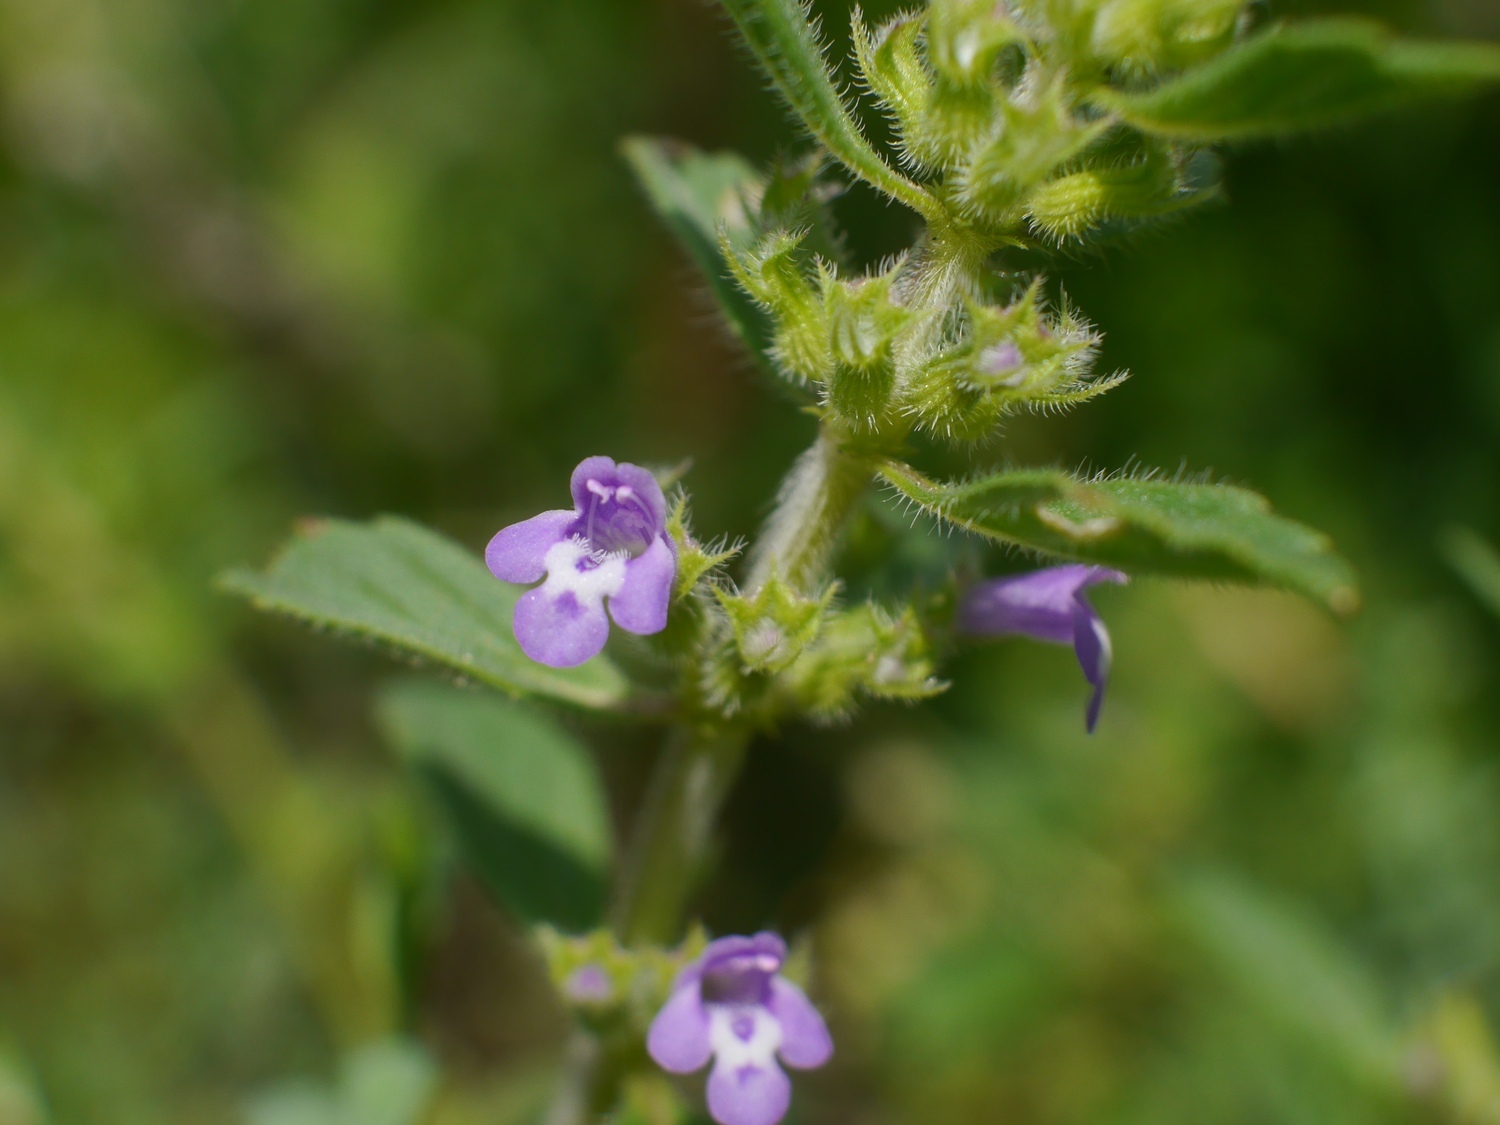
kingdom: Plantae
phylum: Tracheophyta
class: Magnoliopsida
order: Lamiales
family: Lamiaceae
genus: Clinopodium
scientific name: Clinopodium acinos
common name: Basil thyme
